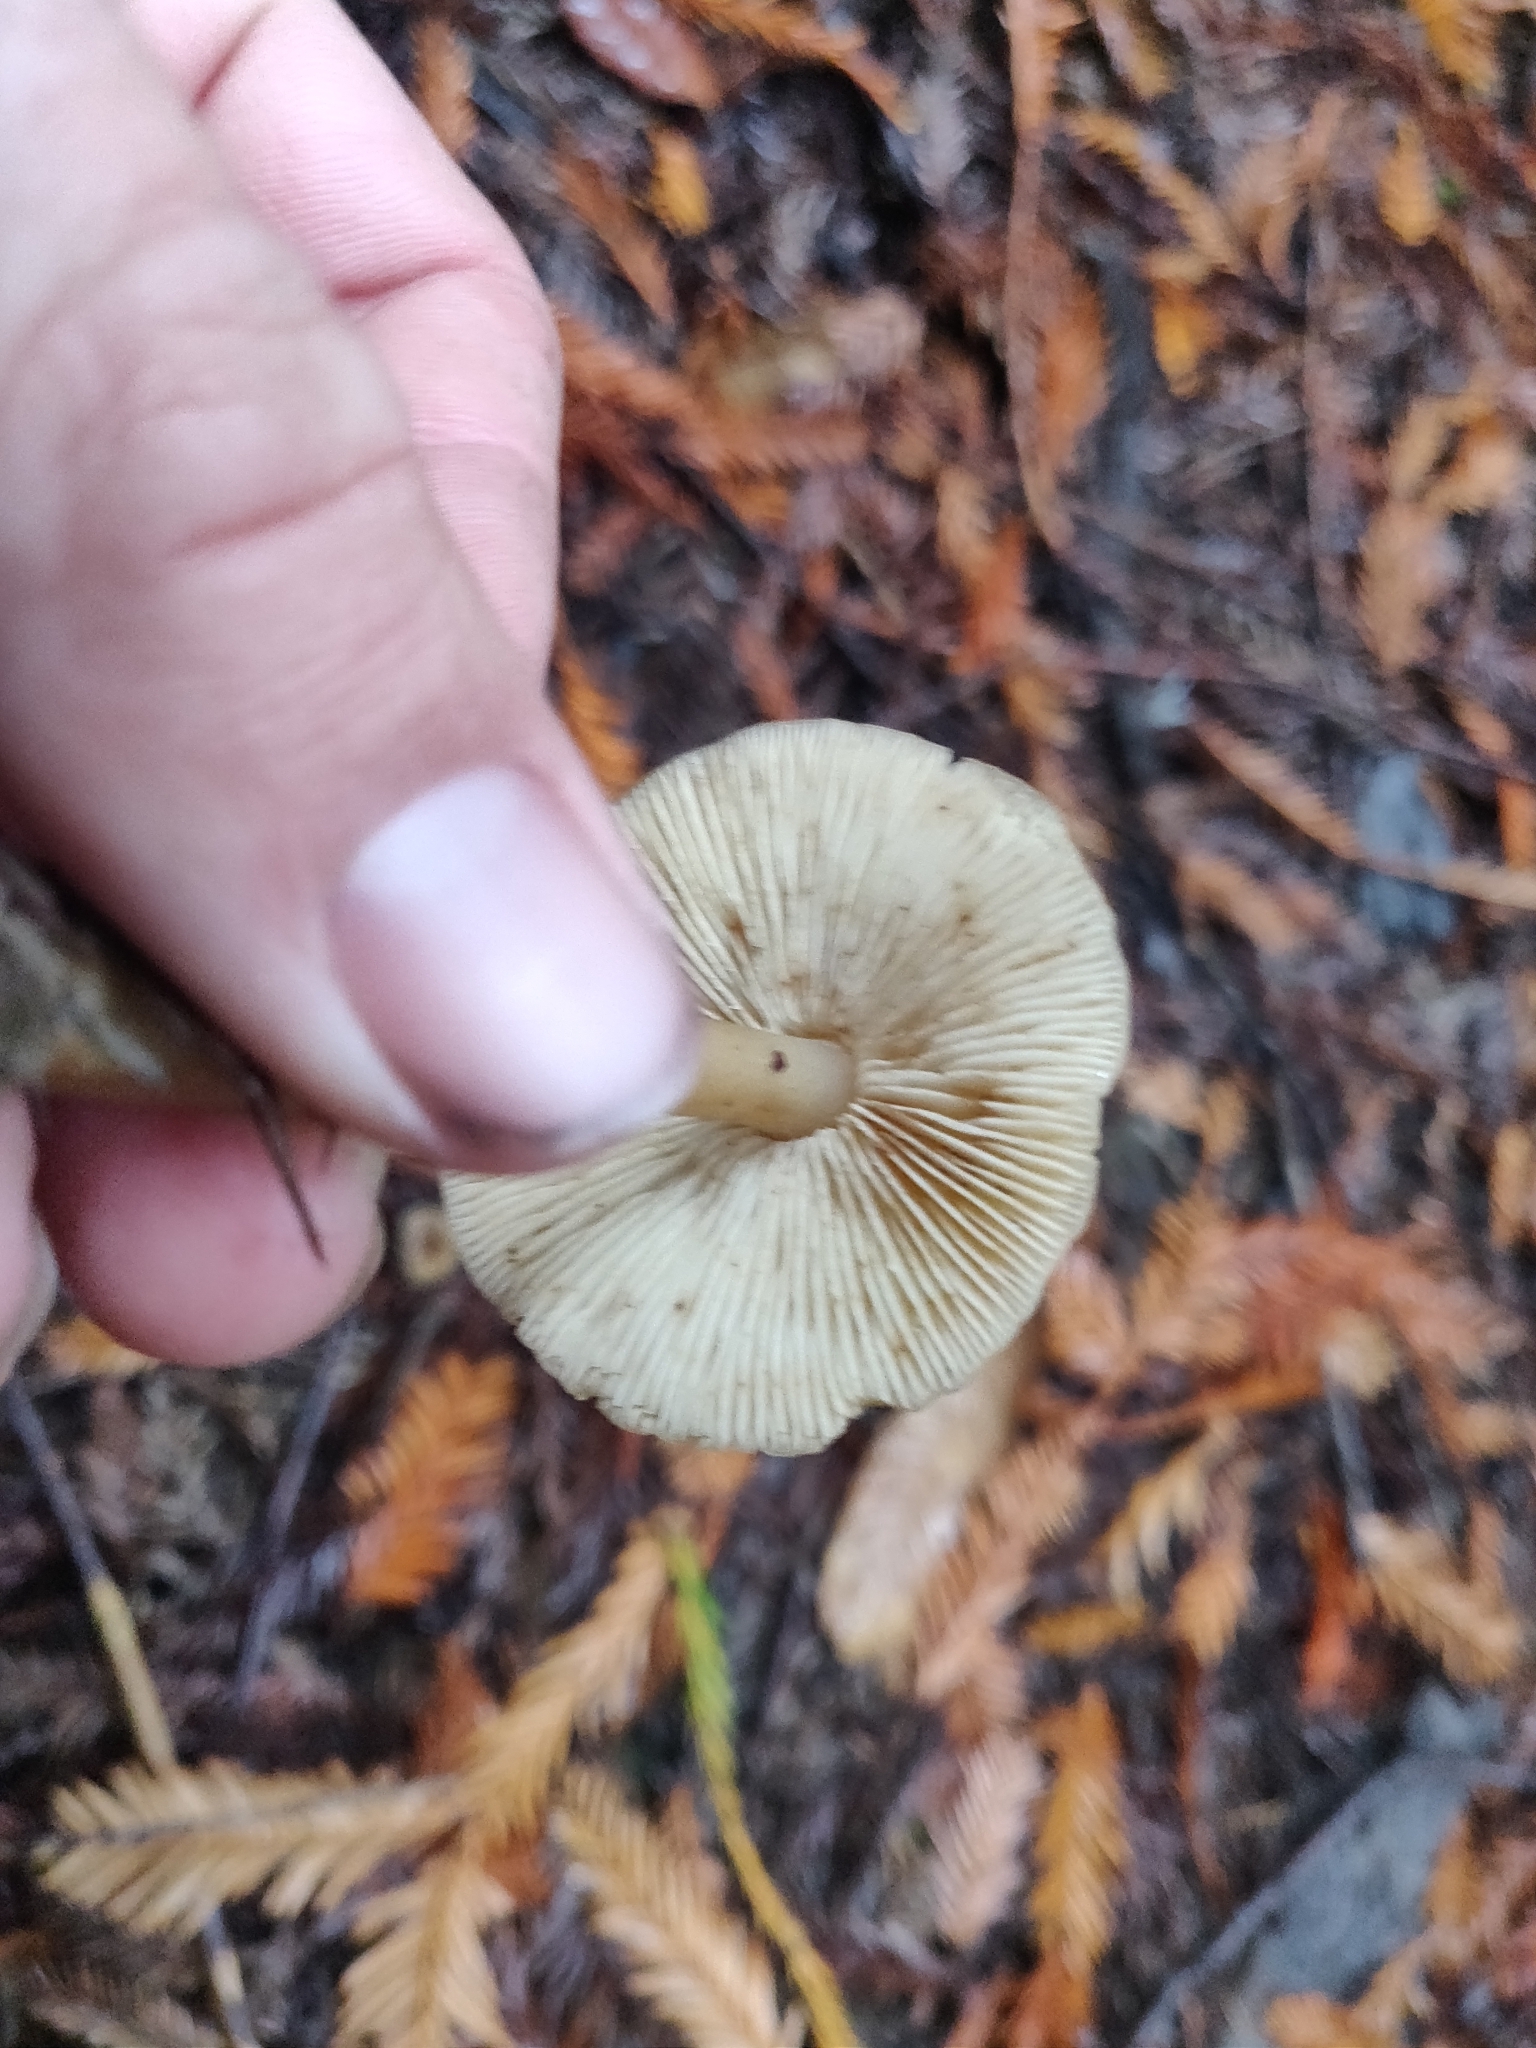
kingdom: Fungi
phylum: Basidiomycota
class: Agaricomycetes
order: Agaricales
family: Tricholomataceae
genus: Caulorhiza
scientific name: Caulorhiza umbonata
